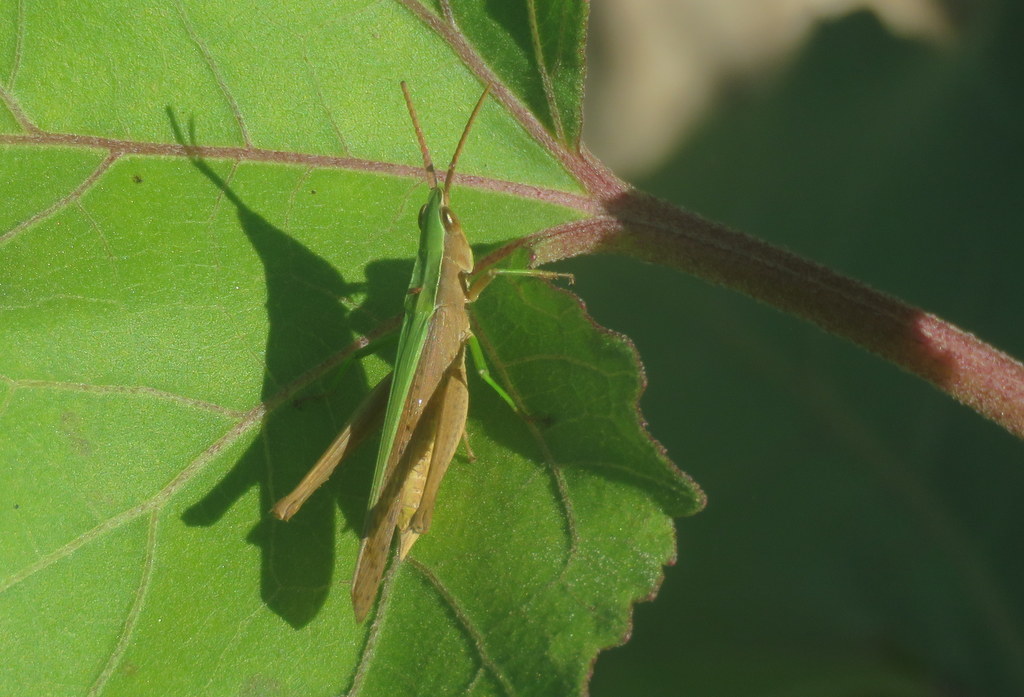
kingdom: Animalia
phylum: Arthropoda
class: Insecta
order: Orthoptera
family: Acrididae
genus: Metaleptea
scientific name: Metaleptea adspersa
